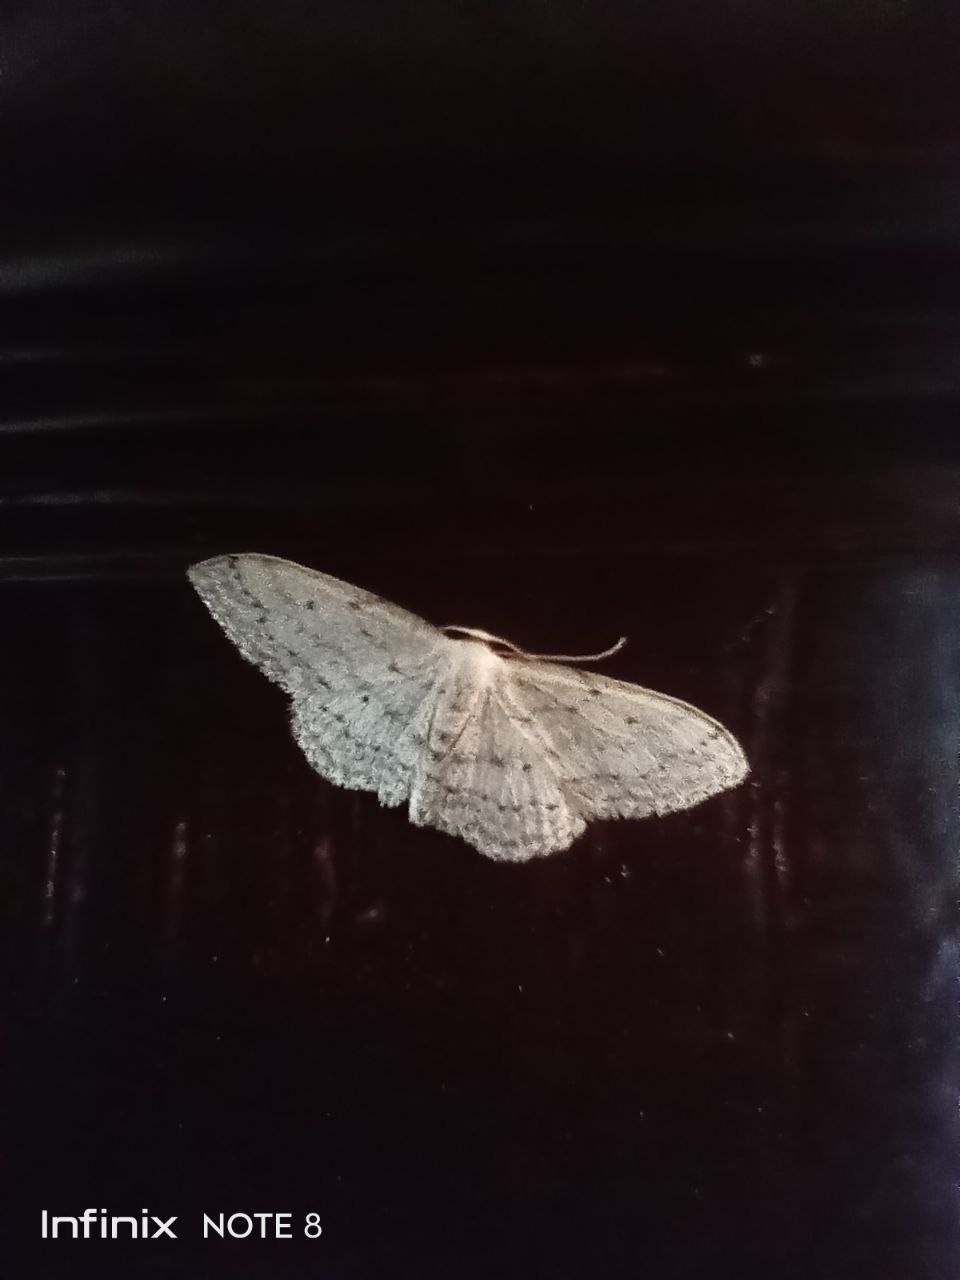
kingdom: Animalia
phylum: Arthropoda
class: Insecta
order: Lepidoptera
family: Geometridae
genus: Idaea
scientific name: Idaea seriata
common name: Small dusty wave
